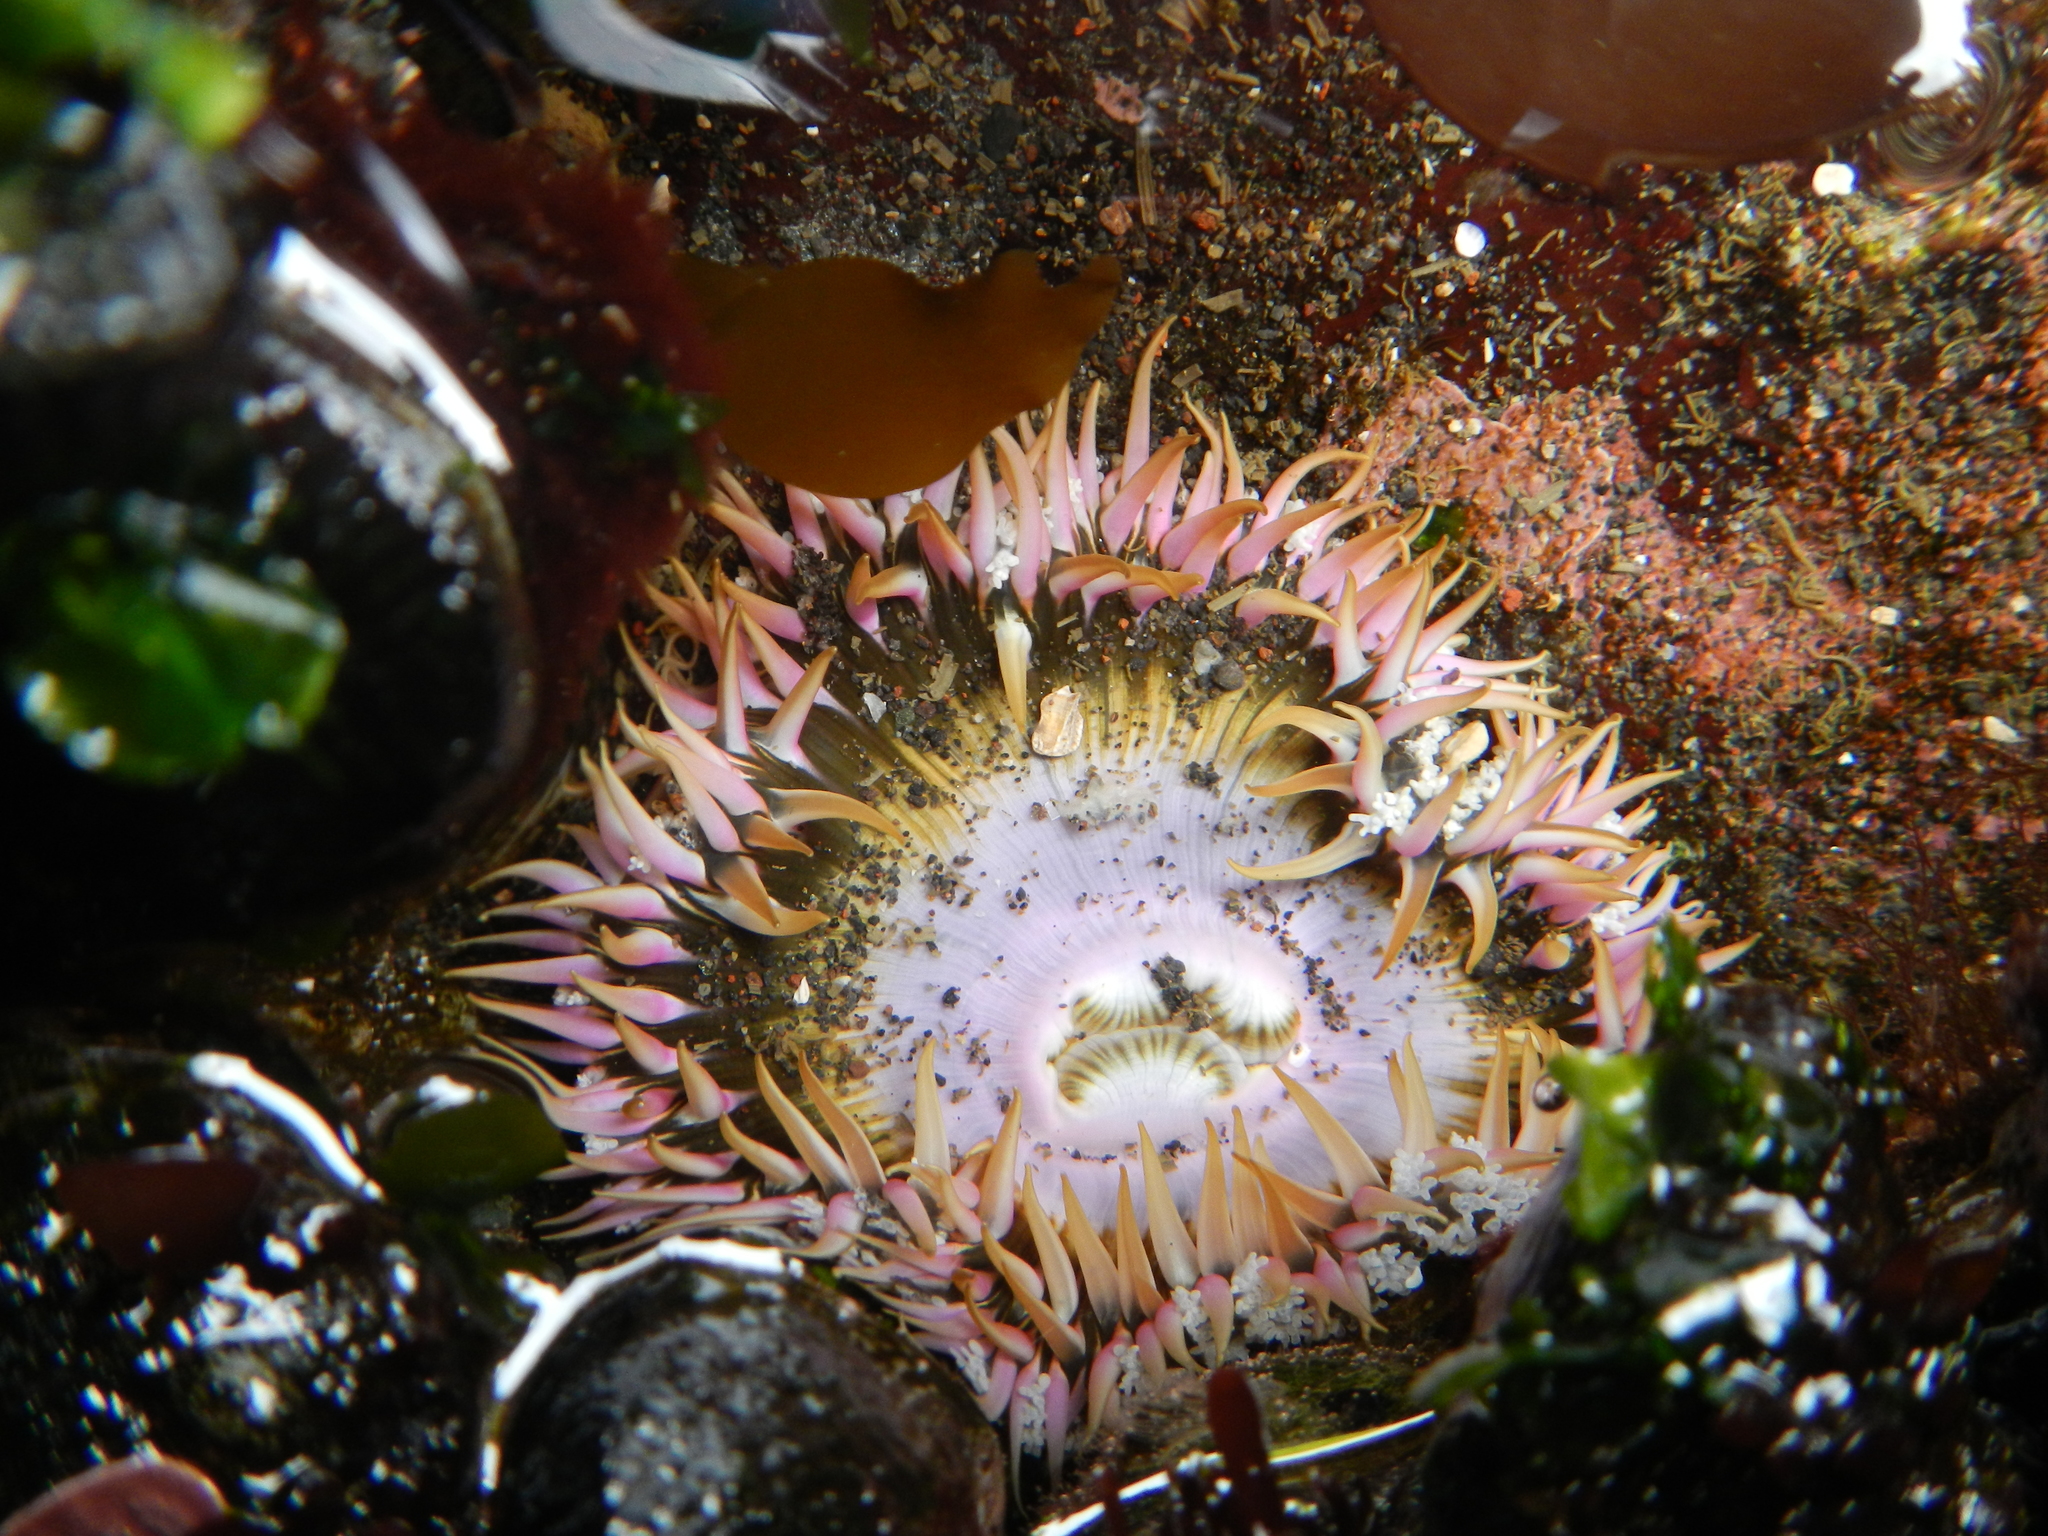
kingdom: Animalia
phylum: Cnidaria
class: Anthozoa
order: Actiniaria
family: Actiniidae
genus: Oulactis
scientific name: Oulactis concinnata
